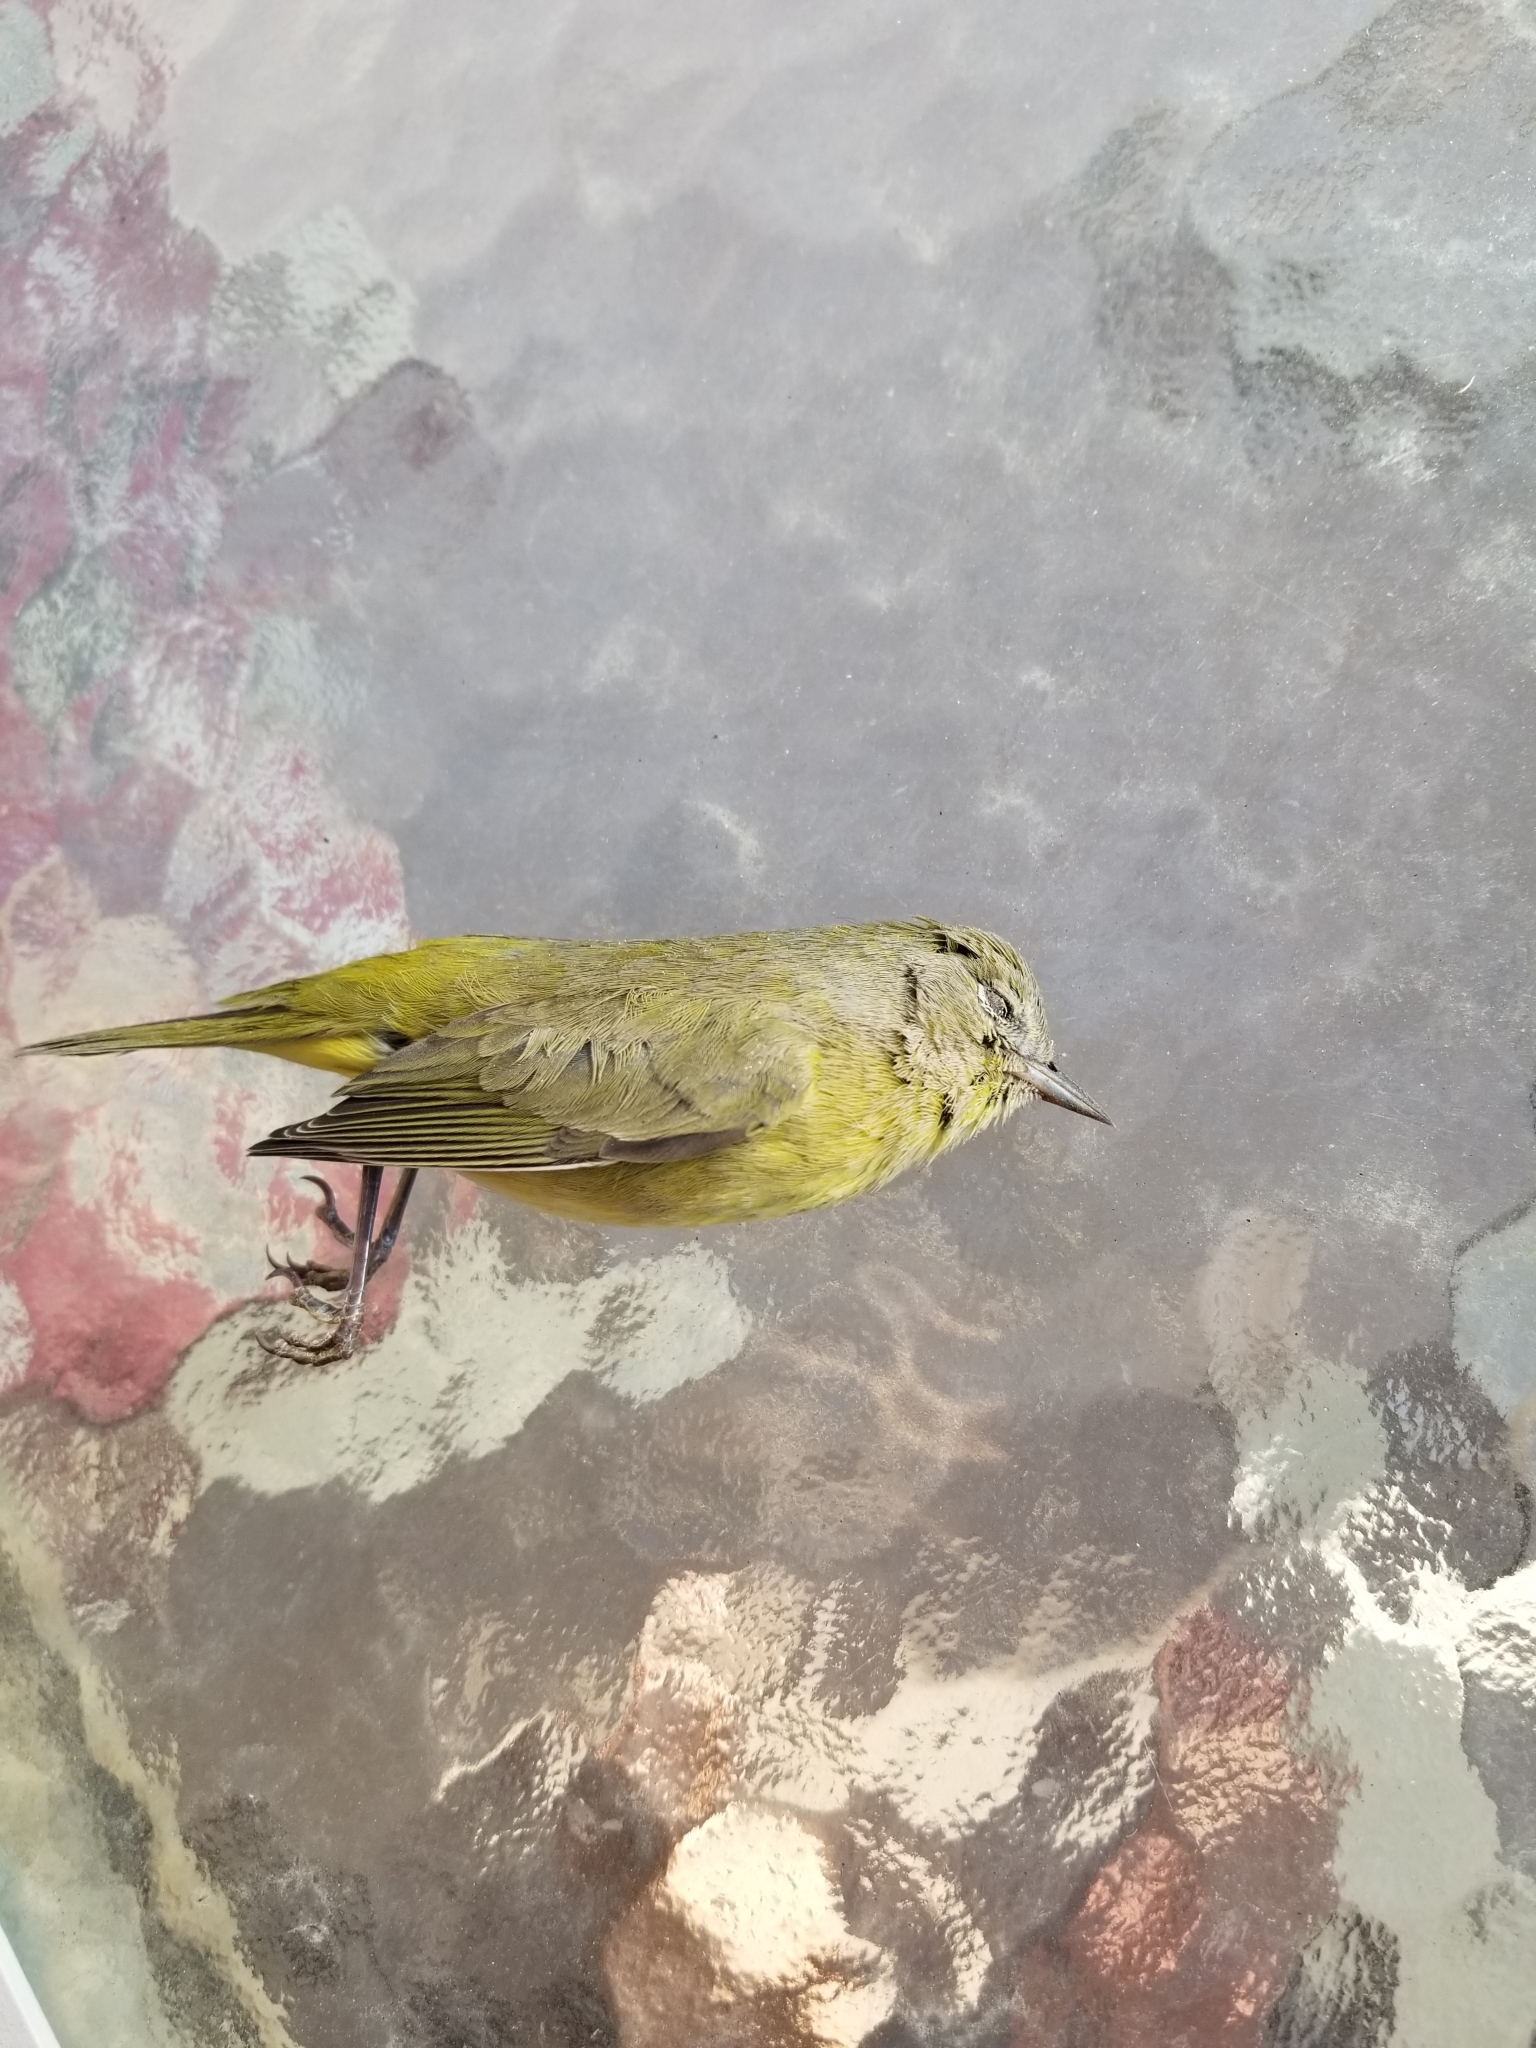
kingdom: Animalia
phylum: Chordata
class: Aves
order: Passeriformes
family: Parulidae
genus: Leiothlypis
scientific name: Leiothlypis celata
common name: Orange-crowned warbler
